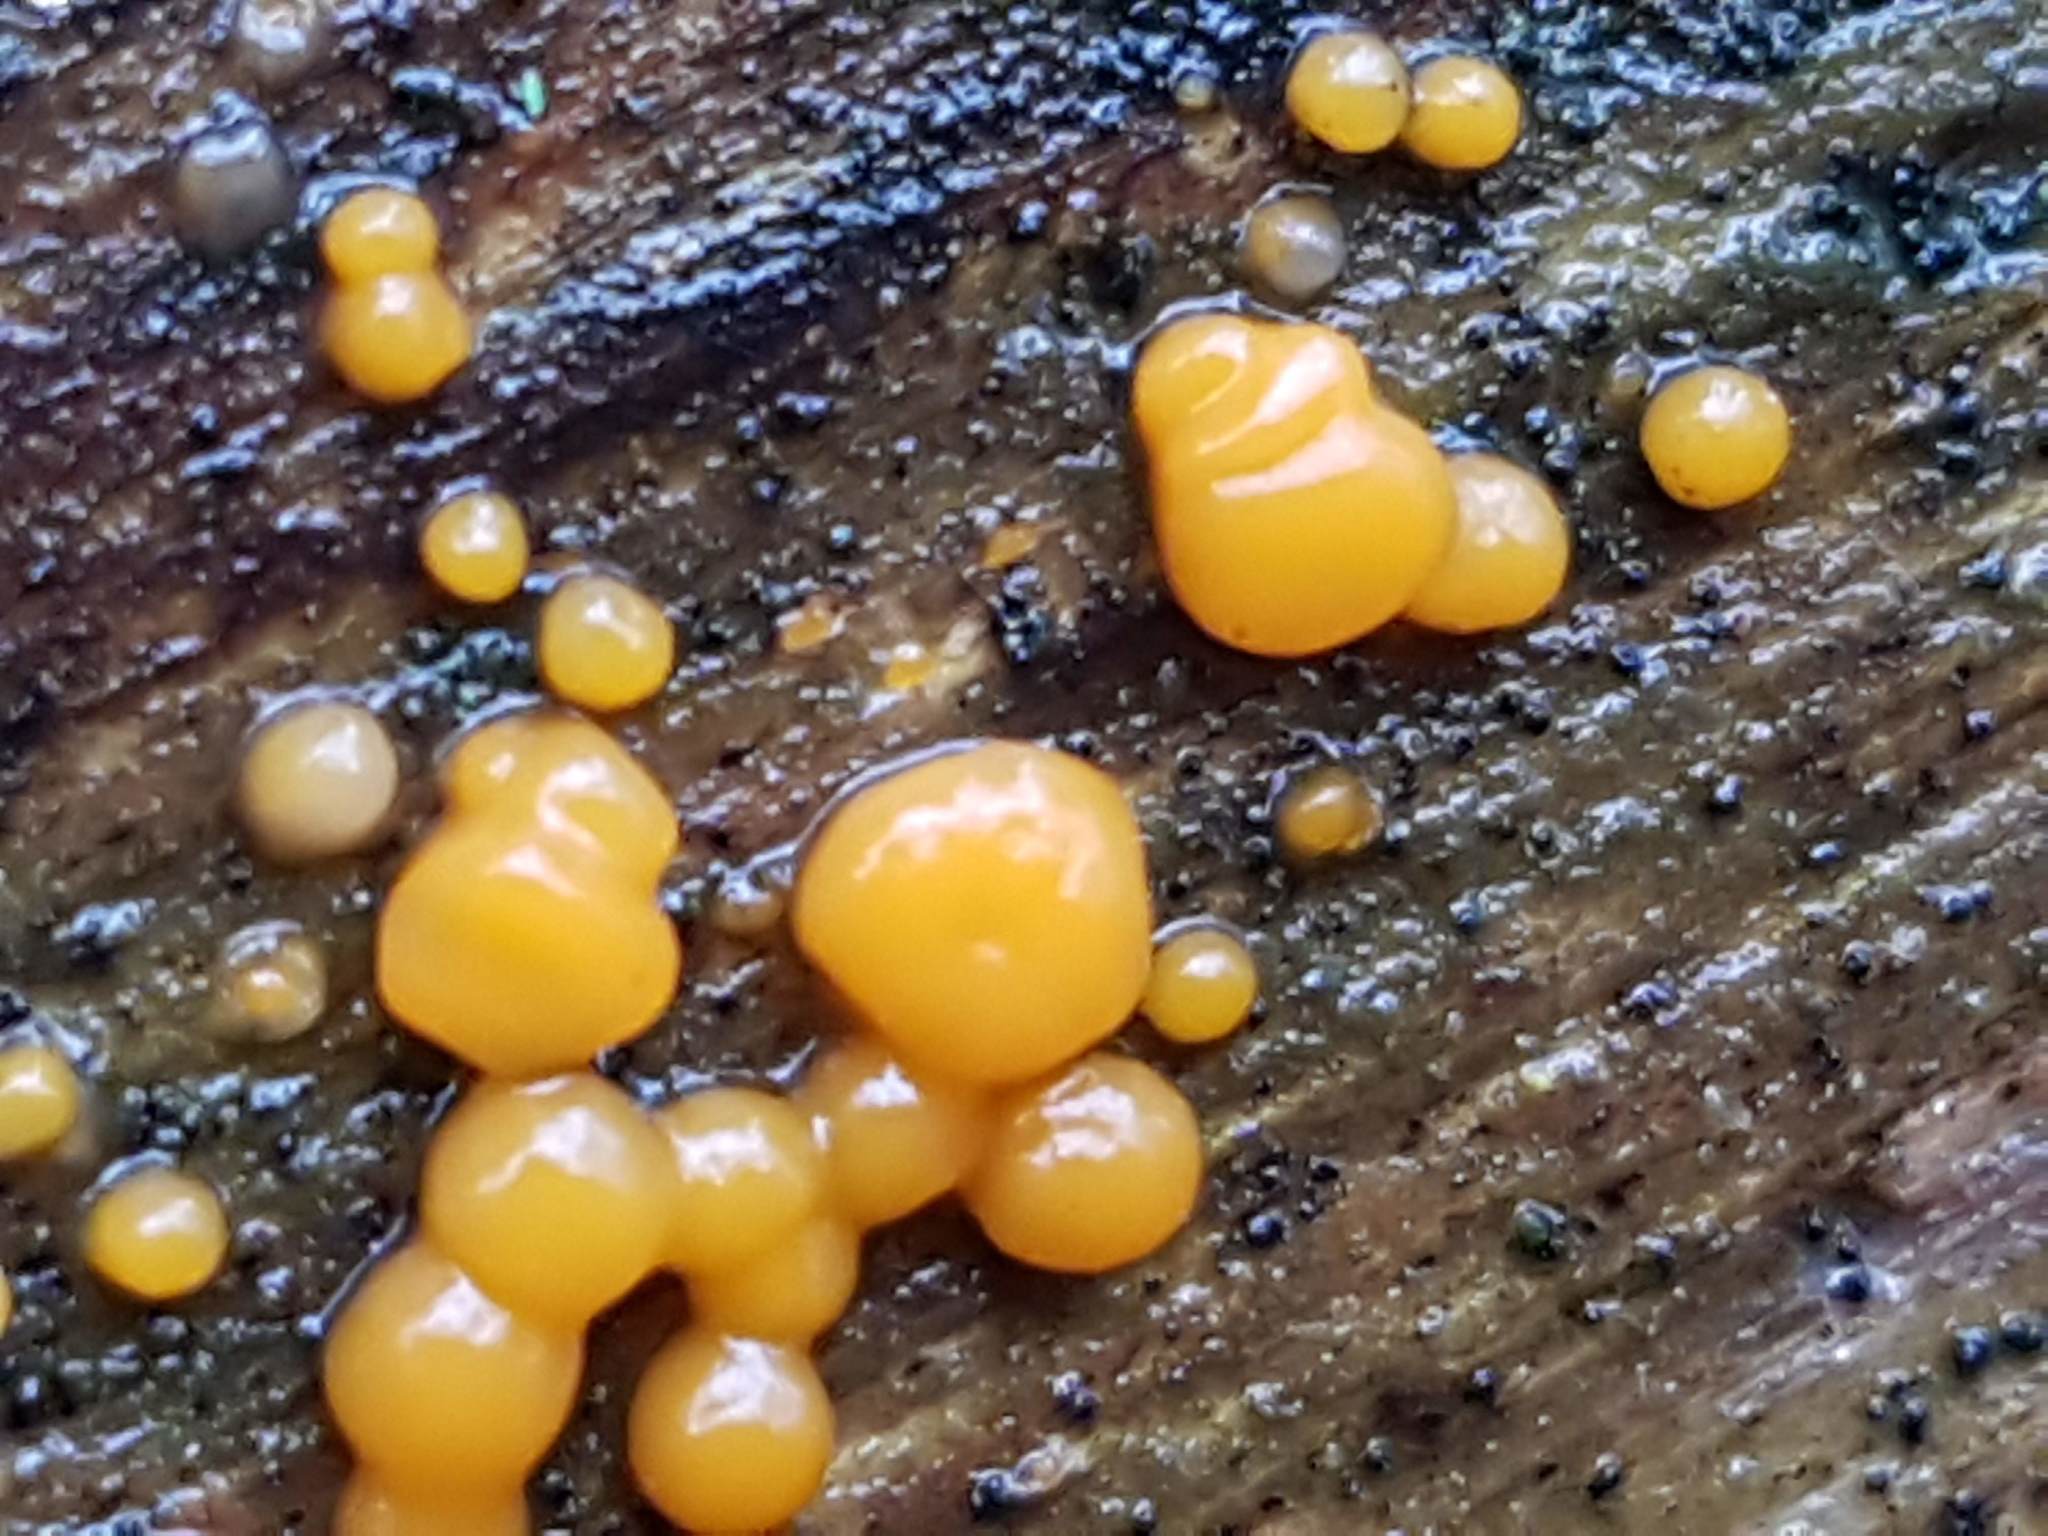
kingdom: Fungi
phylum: Basidiomycota
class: Dacrymycetes
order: Dacrymycetales
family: Dacrymycetaceae
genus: Dacrymyces
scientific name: Dacrymyces stillatus
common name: Common jelly spot
